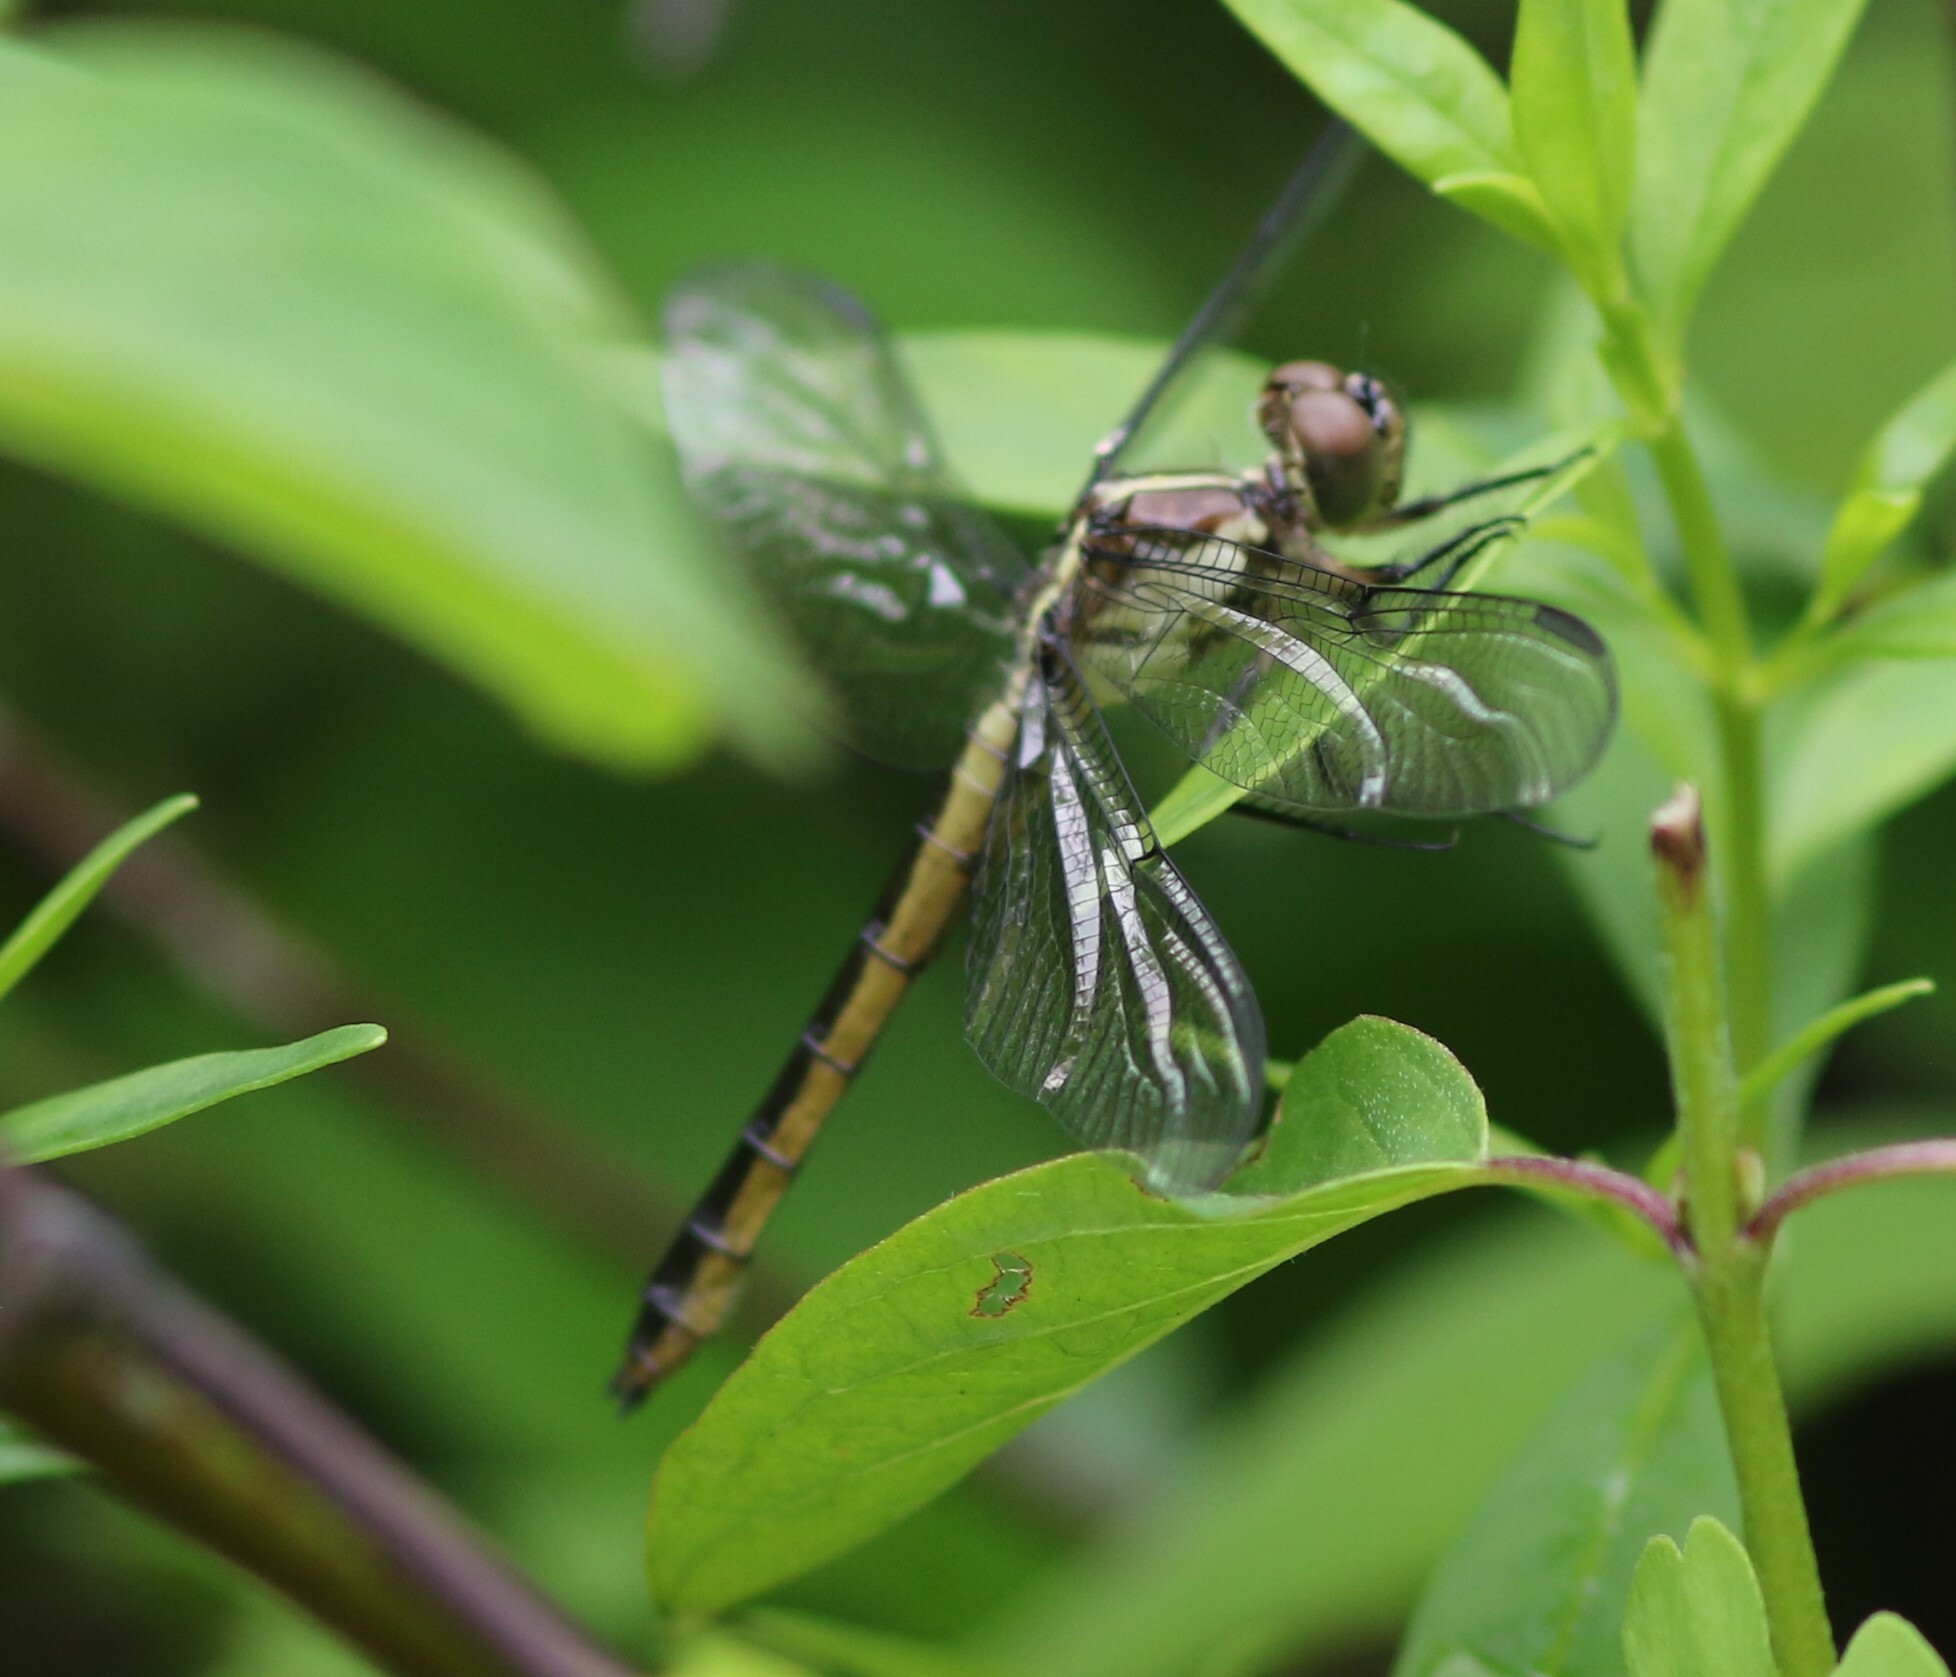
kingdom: Animalia
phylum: Arthropoda
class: Insecta
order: Odonata
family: Libellulidae
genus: Libellula
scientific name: Libellula incesta
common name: Slaty skimmer
